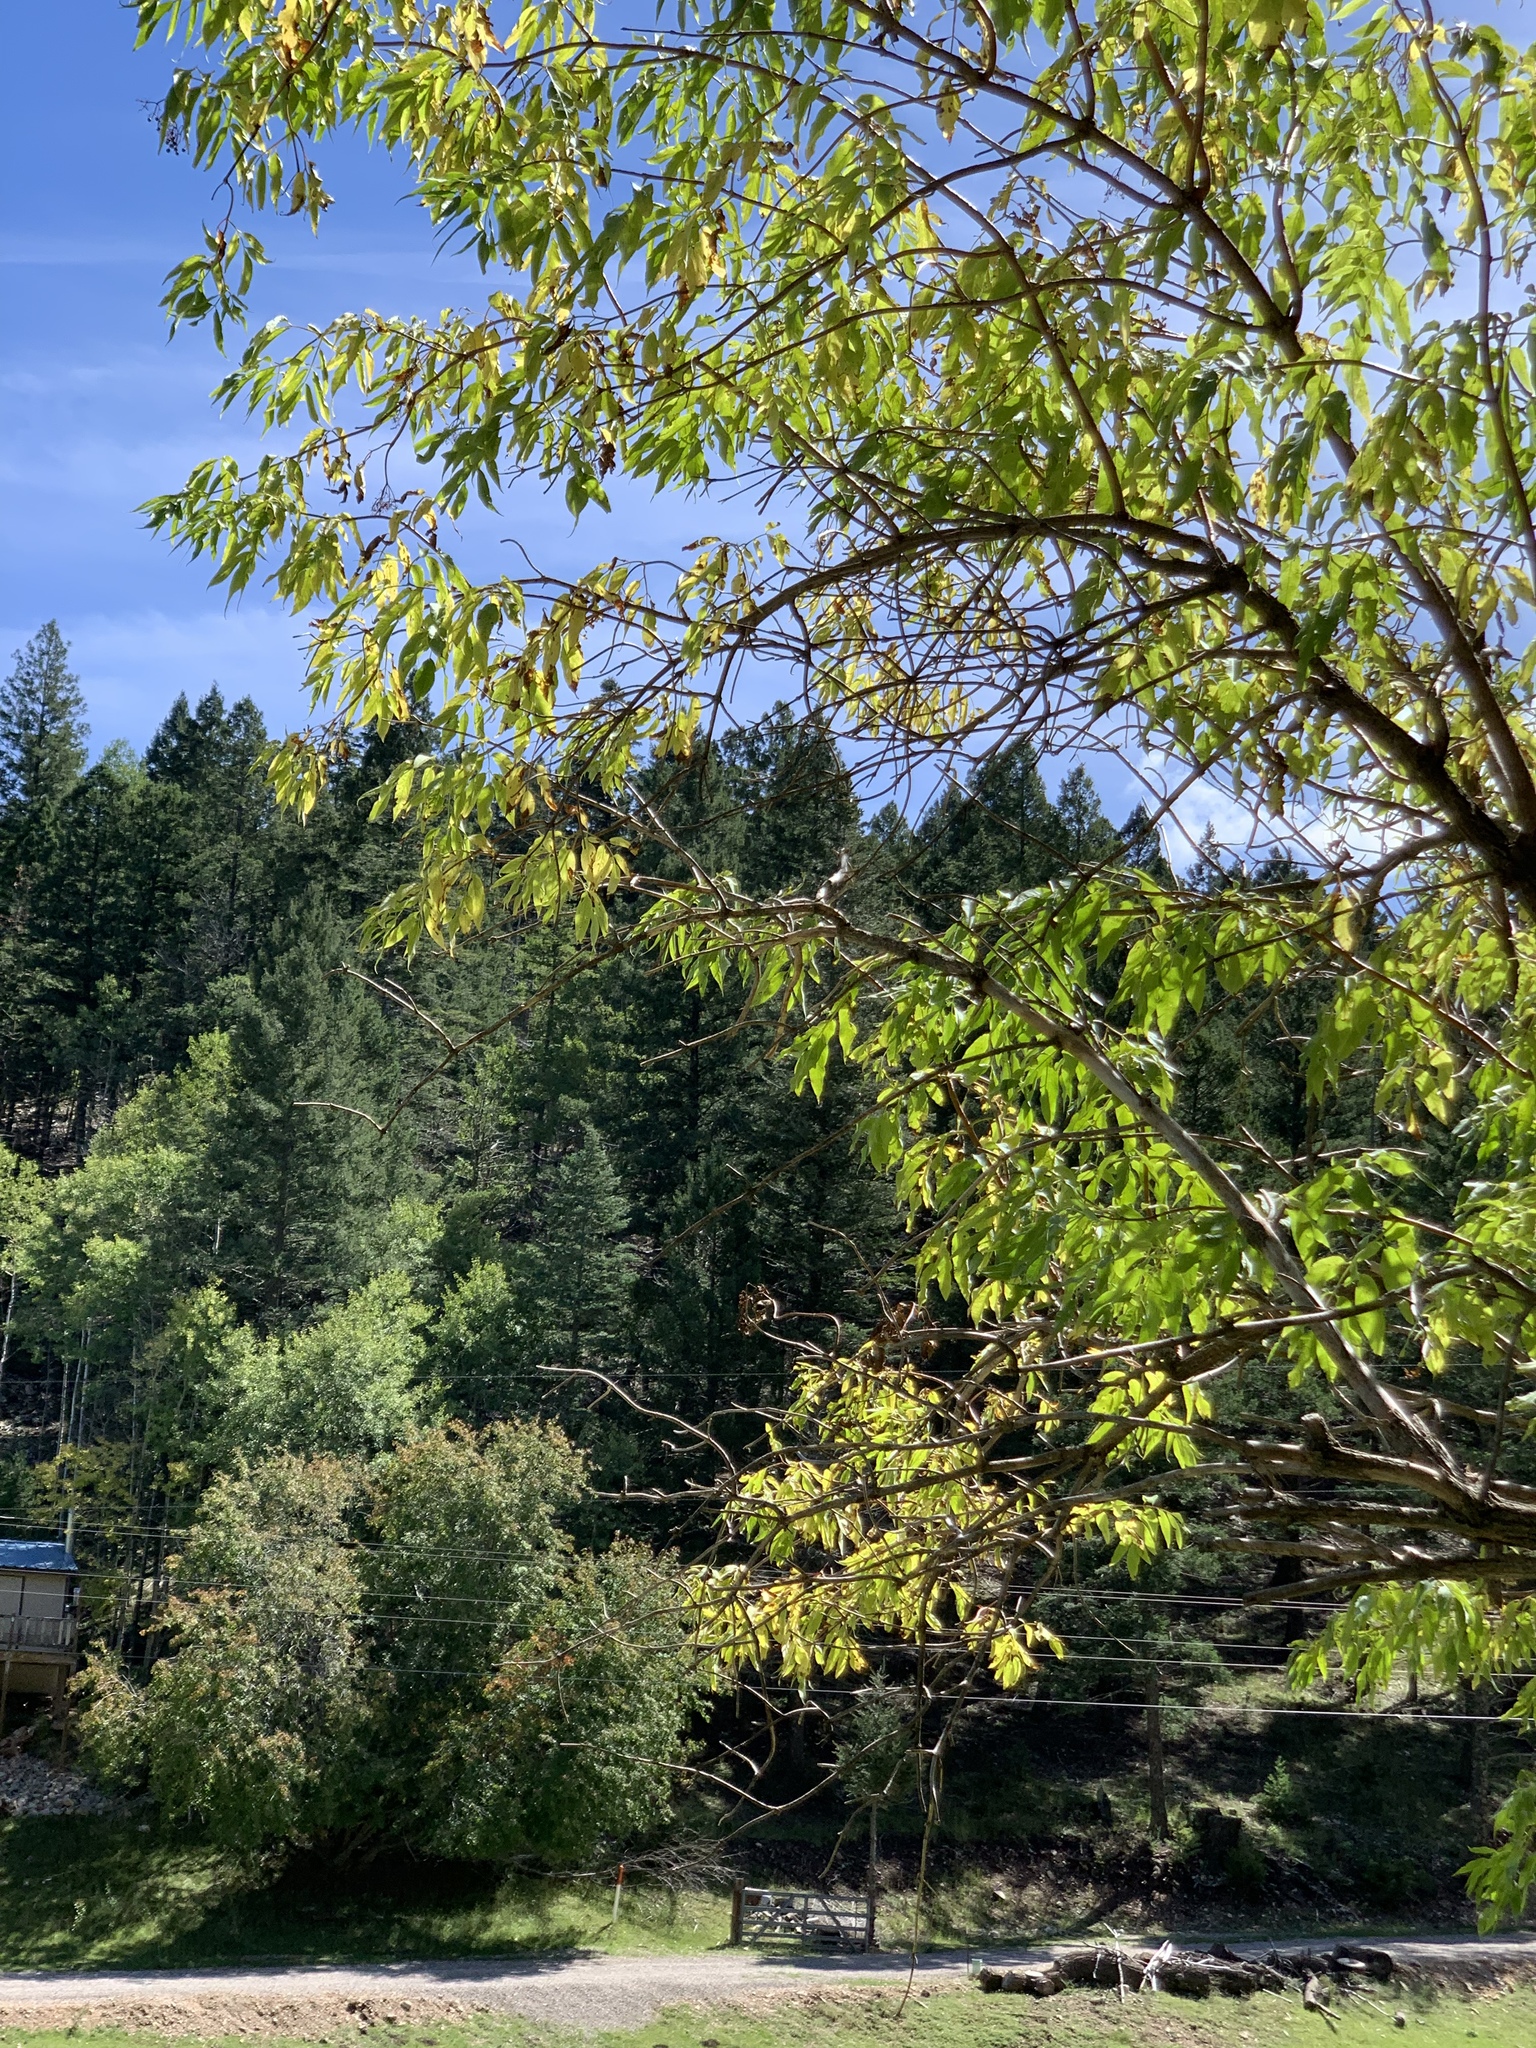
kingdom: Plantae
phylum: Tracheophyta
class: Magnoliopsida
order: Dipsacales
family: Viburnaceae
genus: Sambucus
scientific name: Sambucus cerulea
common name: Blue elder
